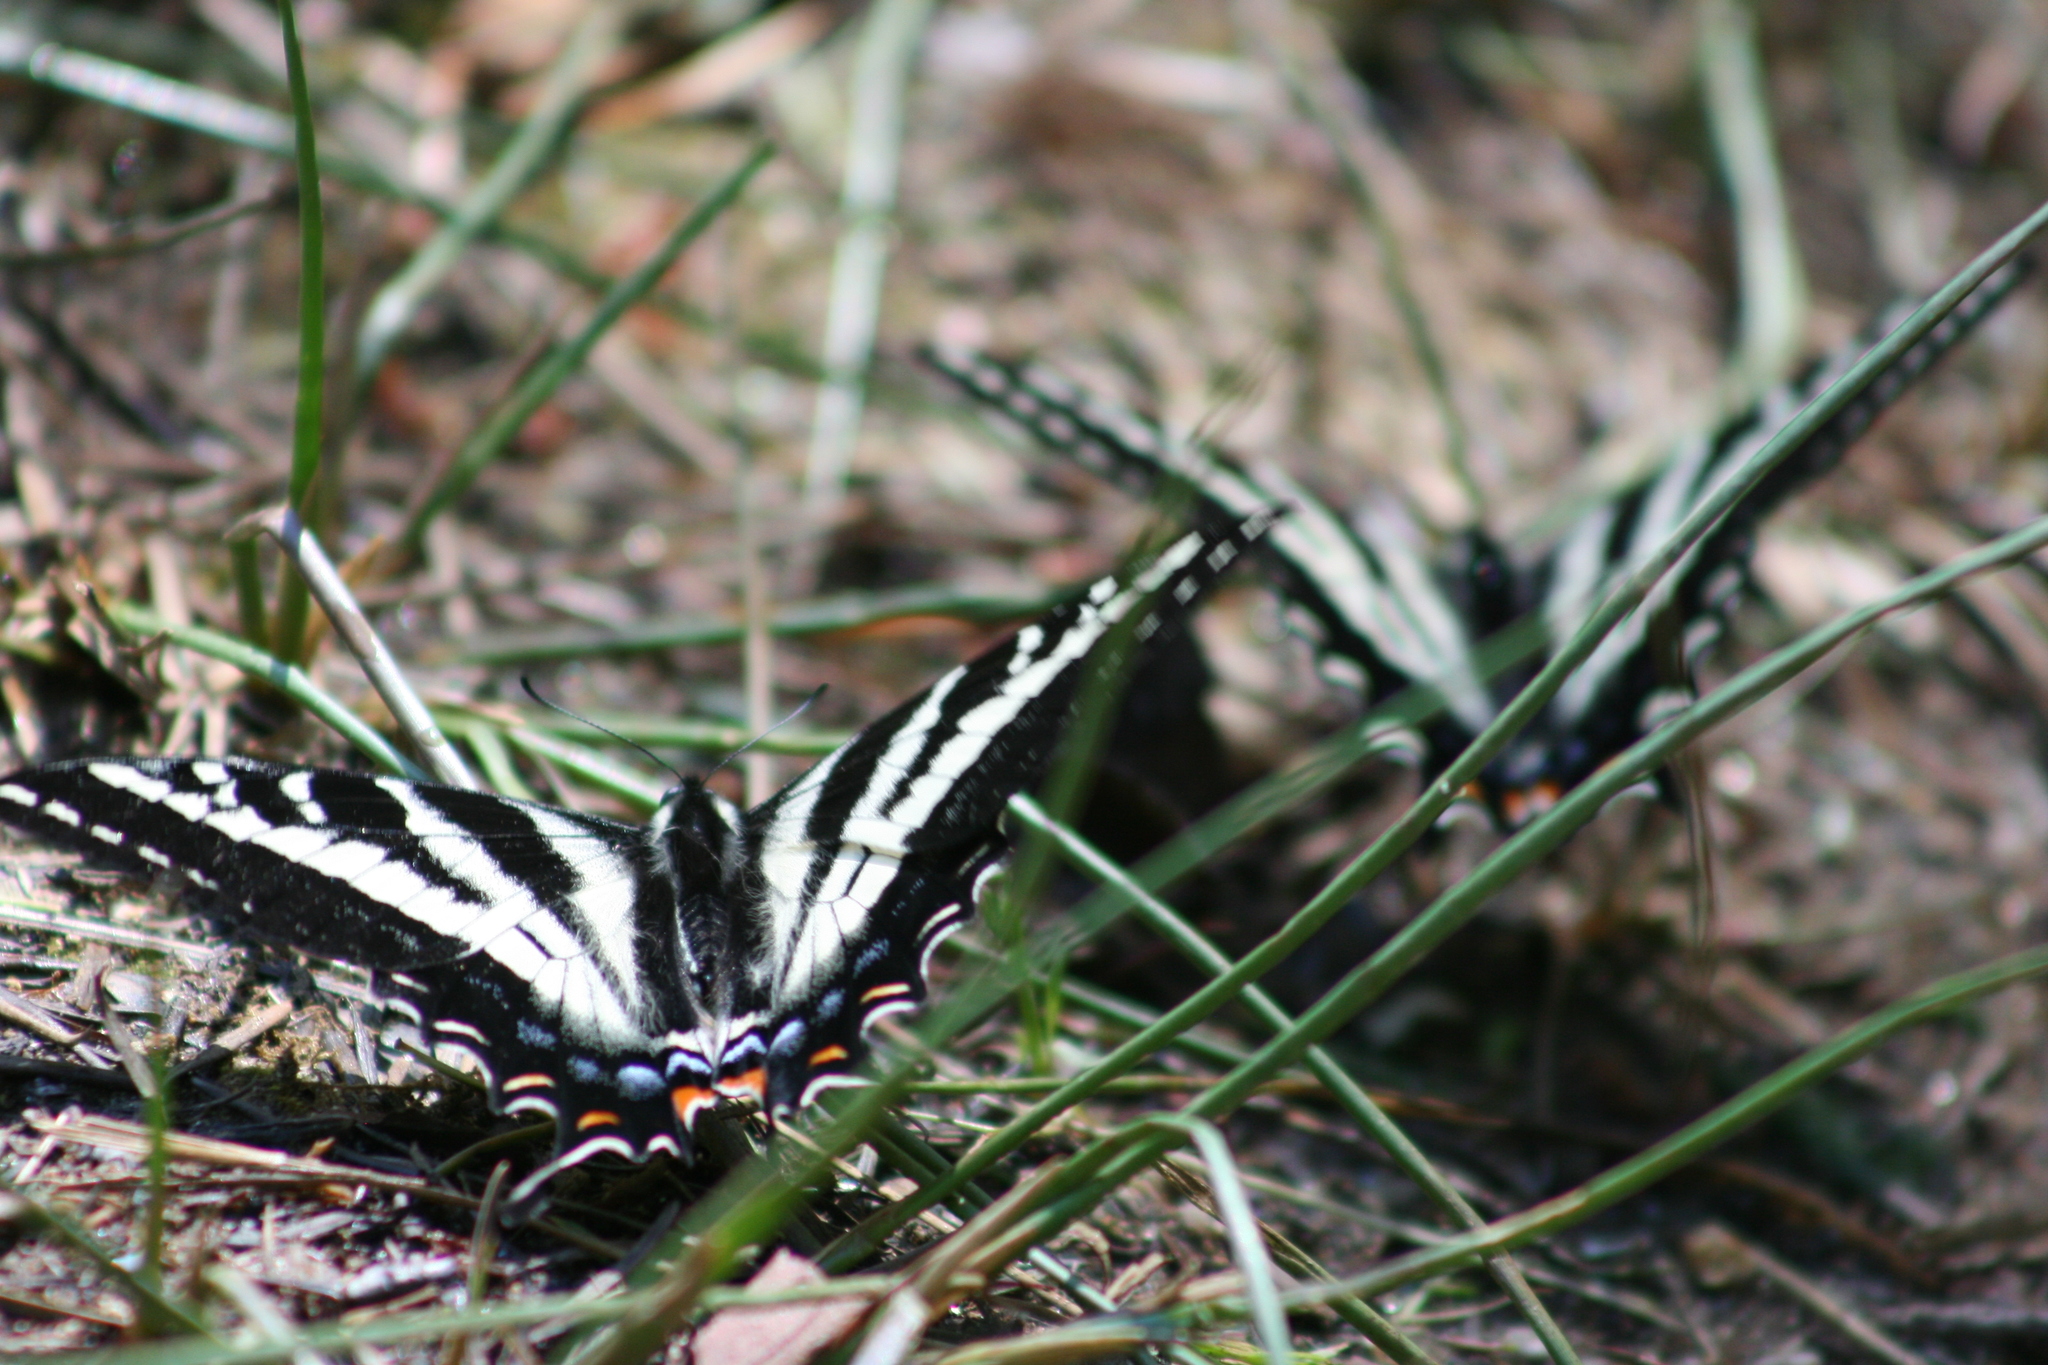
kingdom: Animalia
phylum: Arthropoda
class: Insecta
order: Lepidoptera
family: Papilionidae
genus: Papilio
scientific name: Papilio eurymedon
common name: Pale tiger swallowtail
